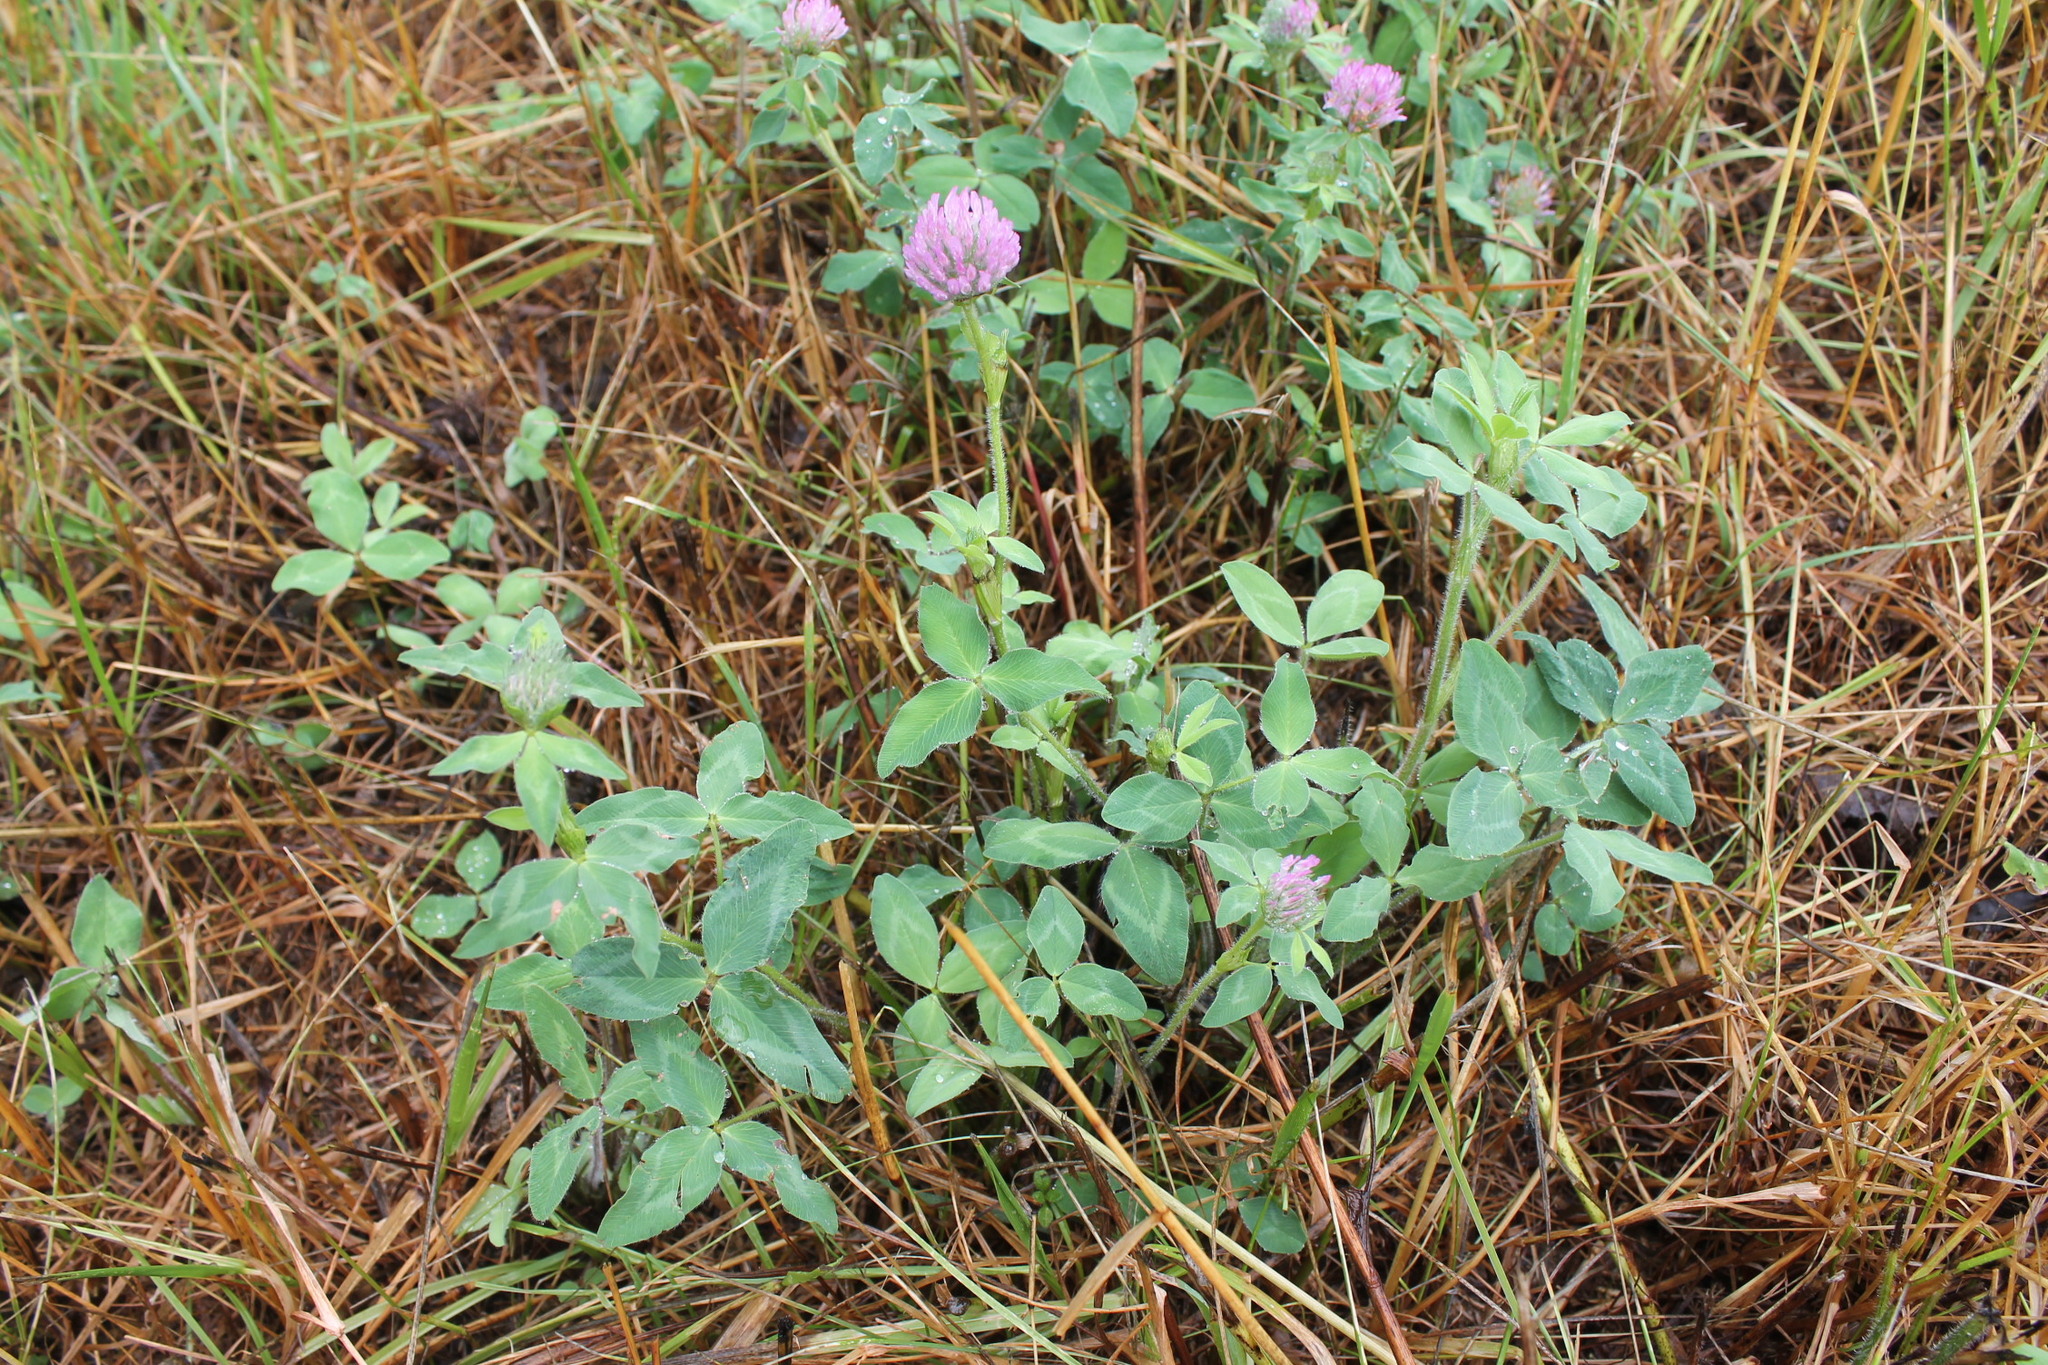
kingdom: Plantae
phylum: Tracheophyta
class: Magnoliopsida
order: Fabales
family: Fabaceae
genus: Trifolium
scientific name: Trifolium pratense
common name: Red clover
